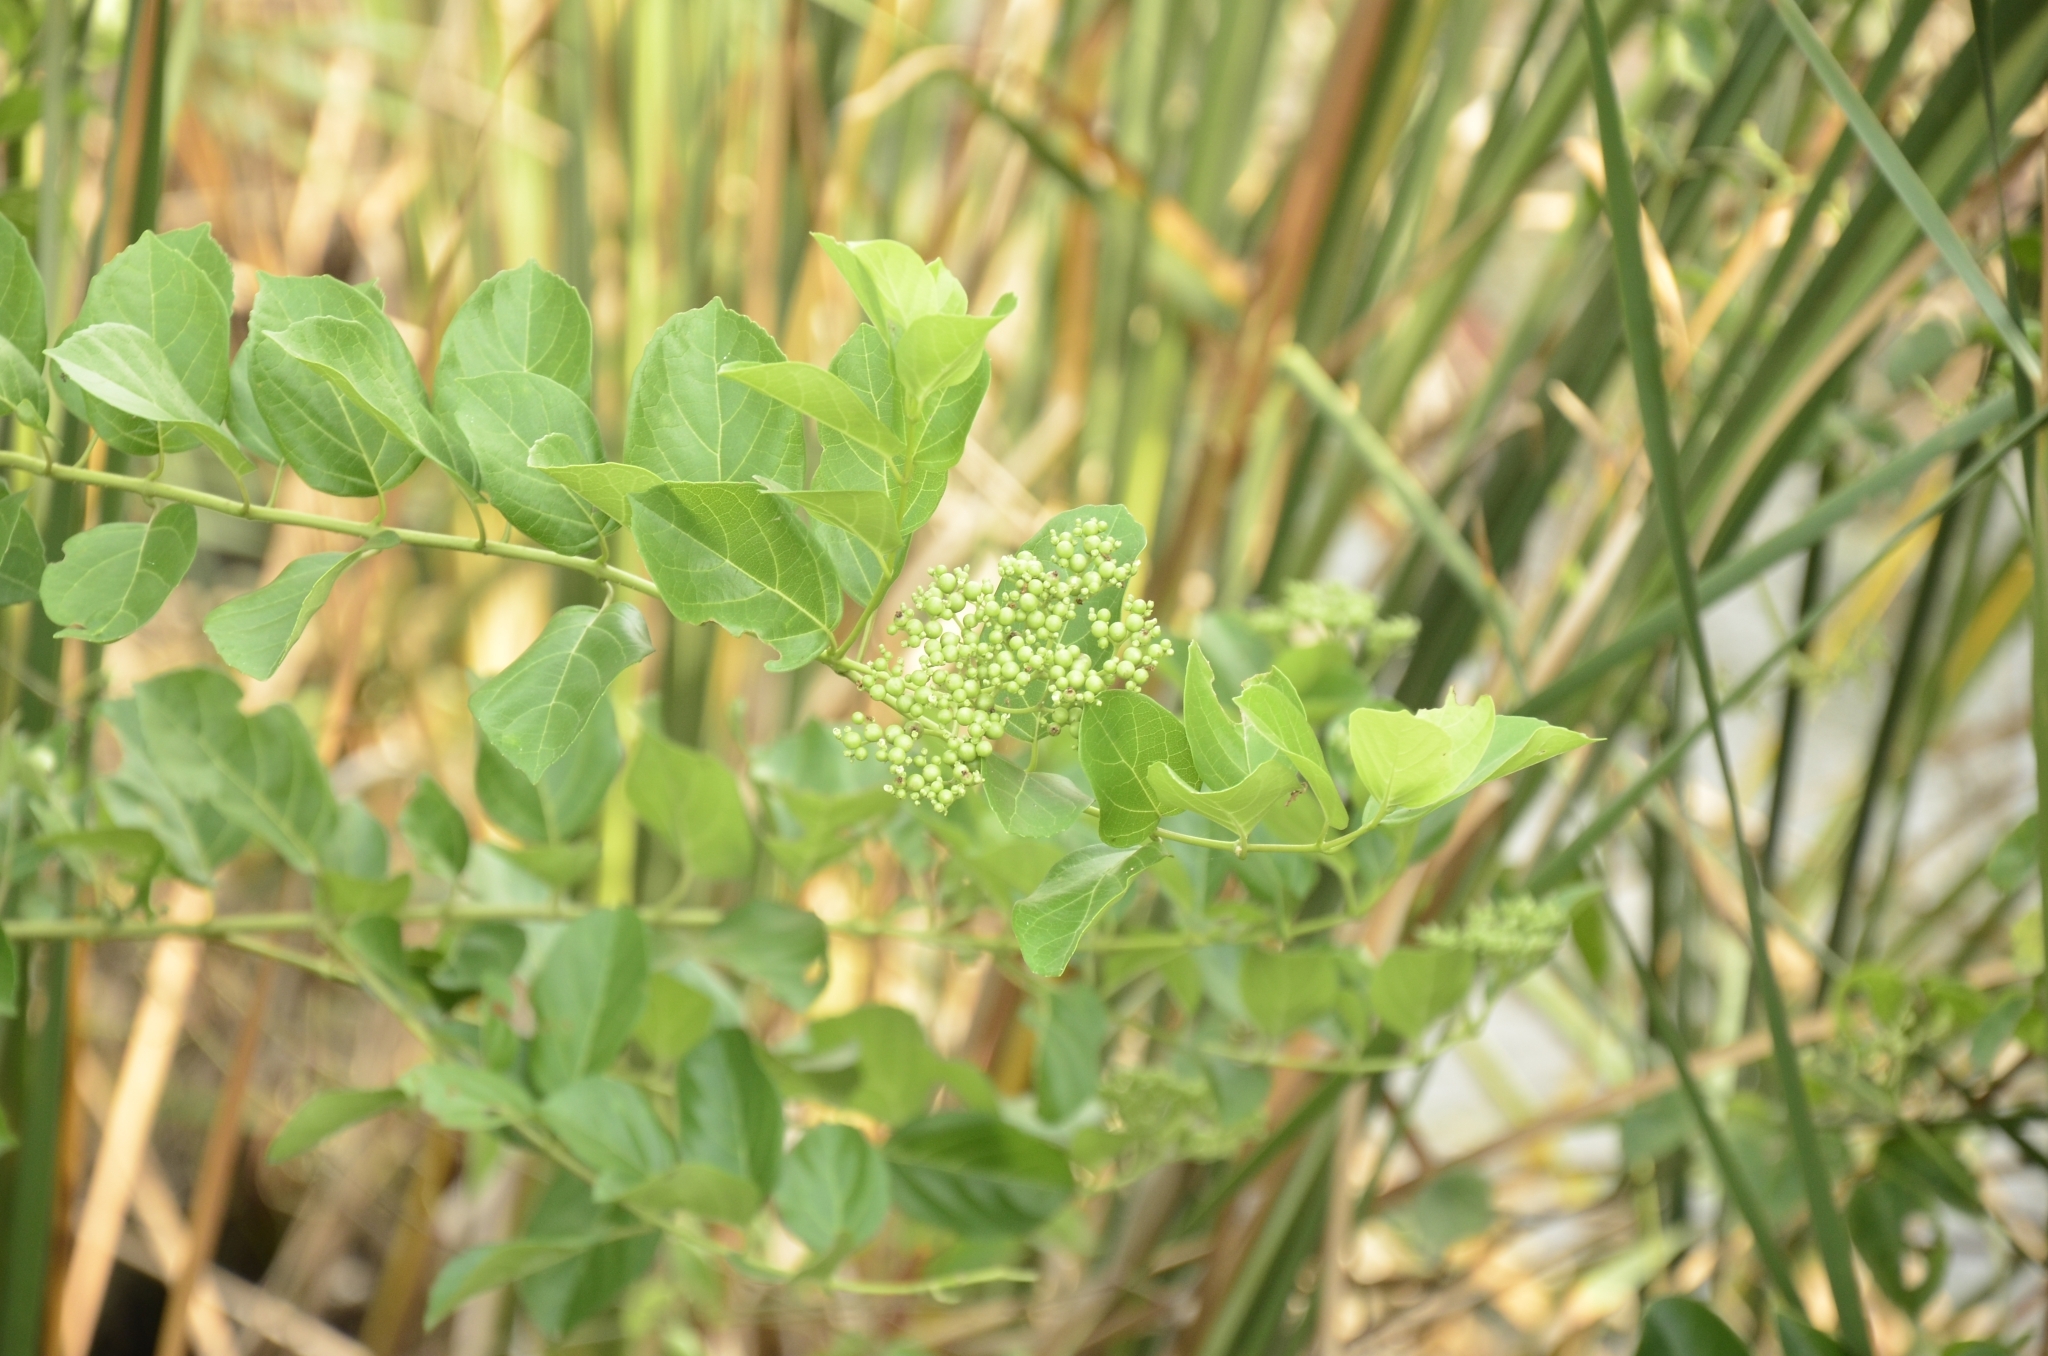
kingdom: Plantae
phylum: Tracheophyta
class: Magnoliopsida
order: Lamiales
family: Lamiaceae
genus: Premna
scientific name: Premna serratifolia
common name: Bastard guelder
